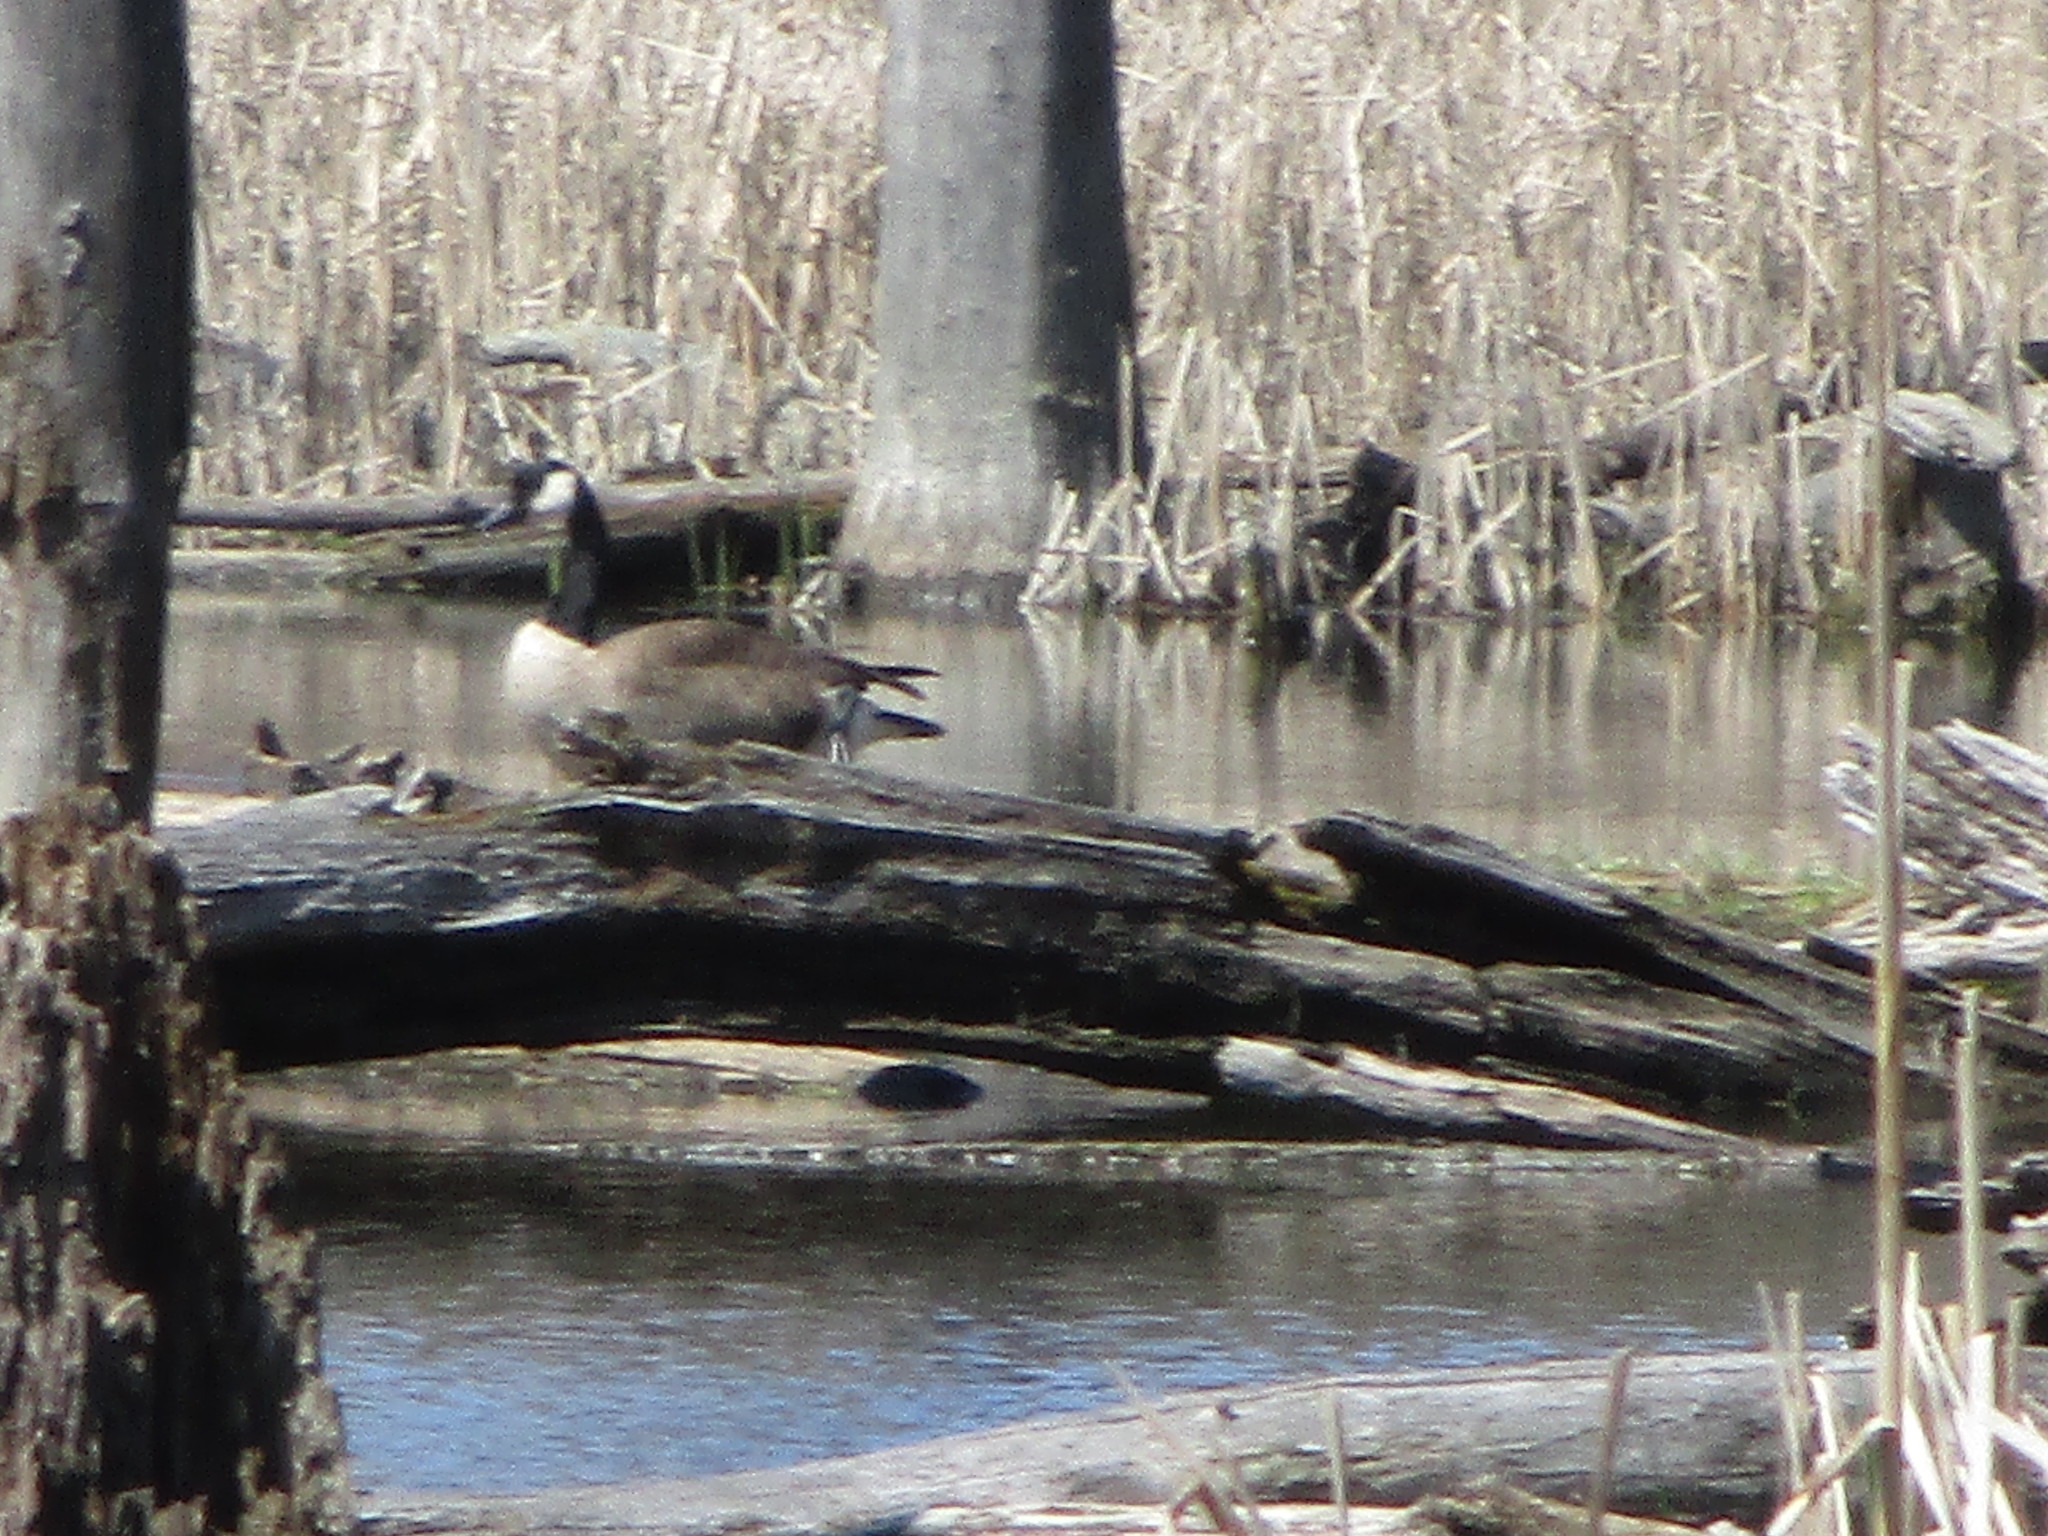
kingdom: Animalia
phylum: Chordata
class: Aves
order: Anseriformes
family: Anatidae
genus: Branta
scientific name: Branta canadensis
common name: Canada goose
